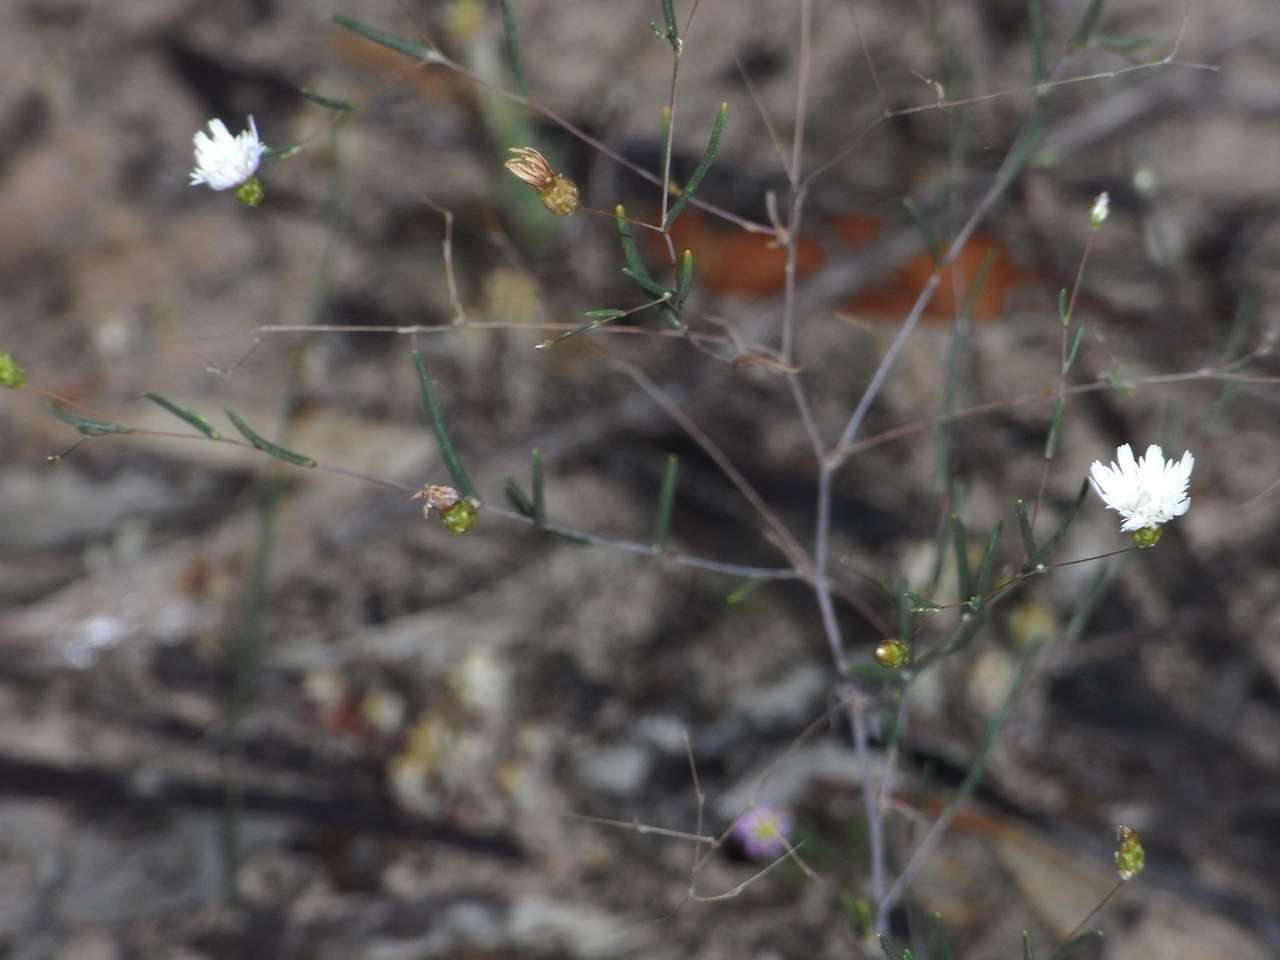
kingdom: Plantae
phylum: Tracheophyta
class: Magnoliopsida
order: Asterales
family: Asteraceae
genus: Siemssenia
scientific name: Siemssenia capillaris
